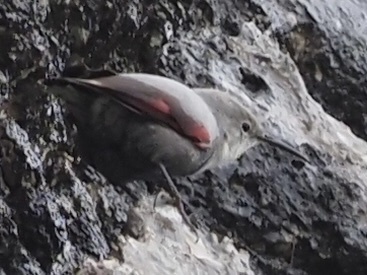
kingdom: Animalia
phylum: Chordata
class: Aves
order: Passeriformes
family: Tichodromidae
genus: Tichodroma
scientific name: Tichodroma muraria
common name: Wallcreeper
